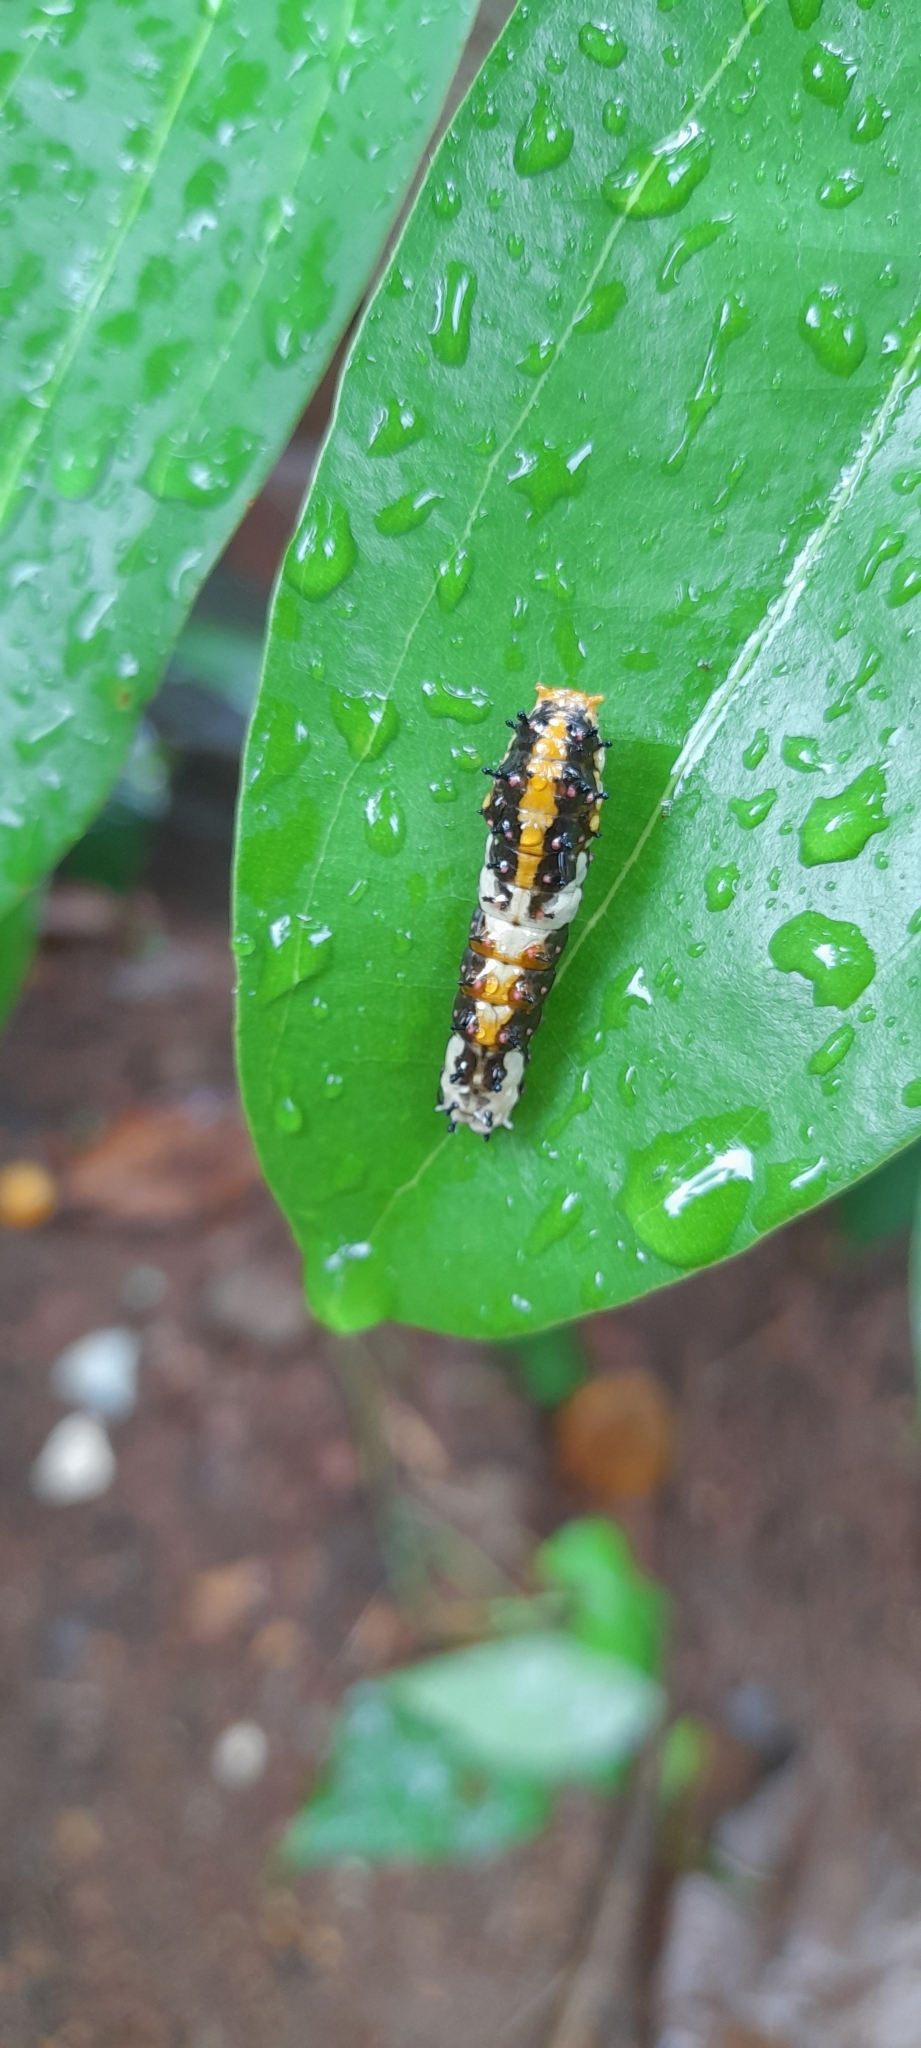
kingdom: Animalia
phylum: Arthropoda
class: Insecta
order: Lepidoptera
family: Papilionidae
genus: Chilasa
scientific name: Chilasa clytia
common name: Common mime
